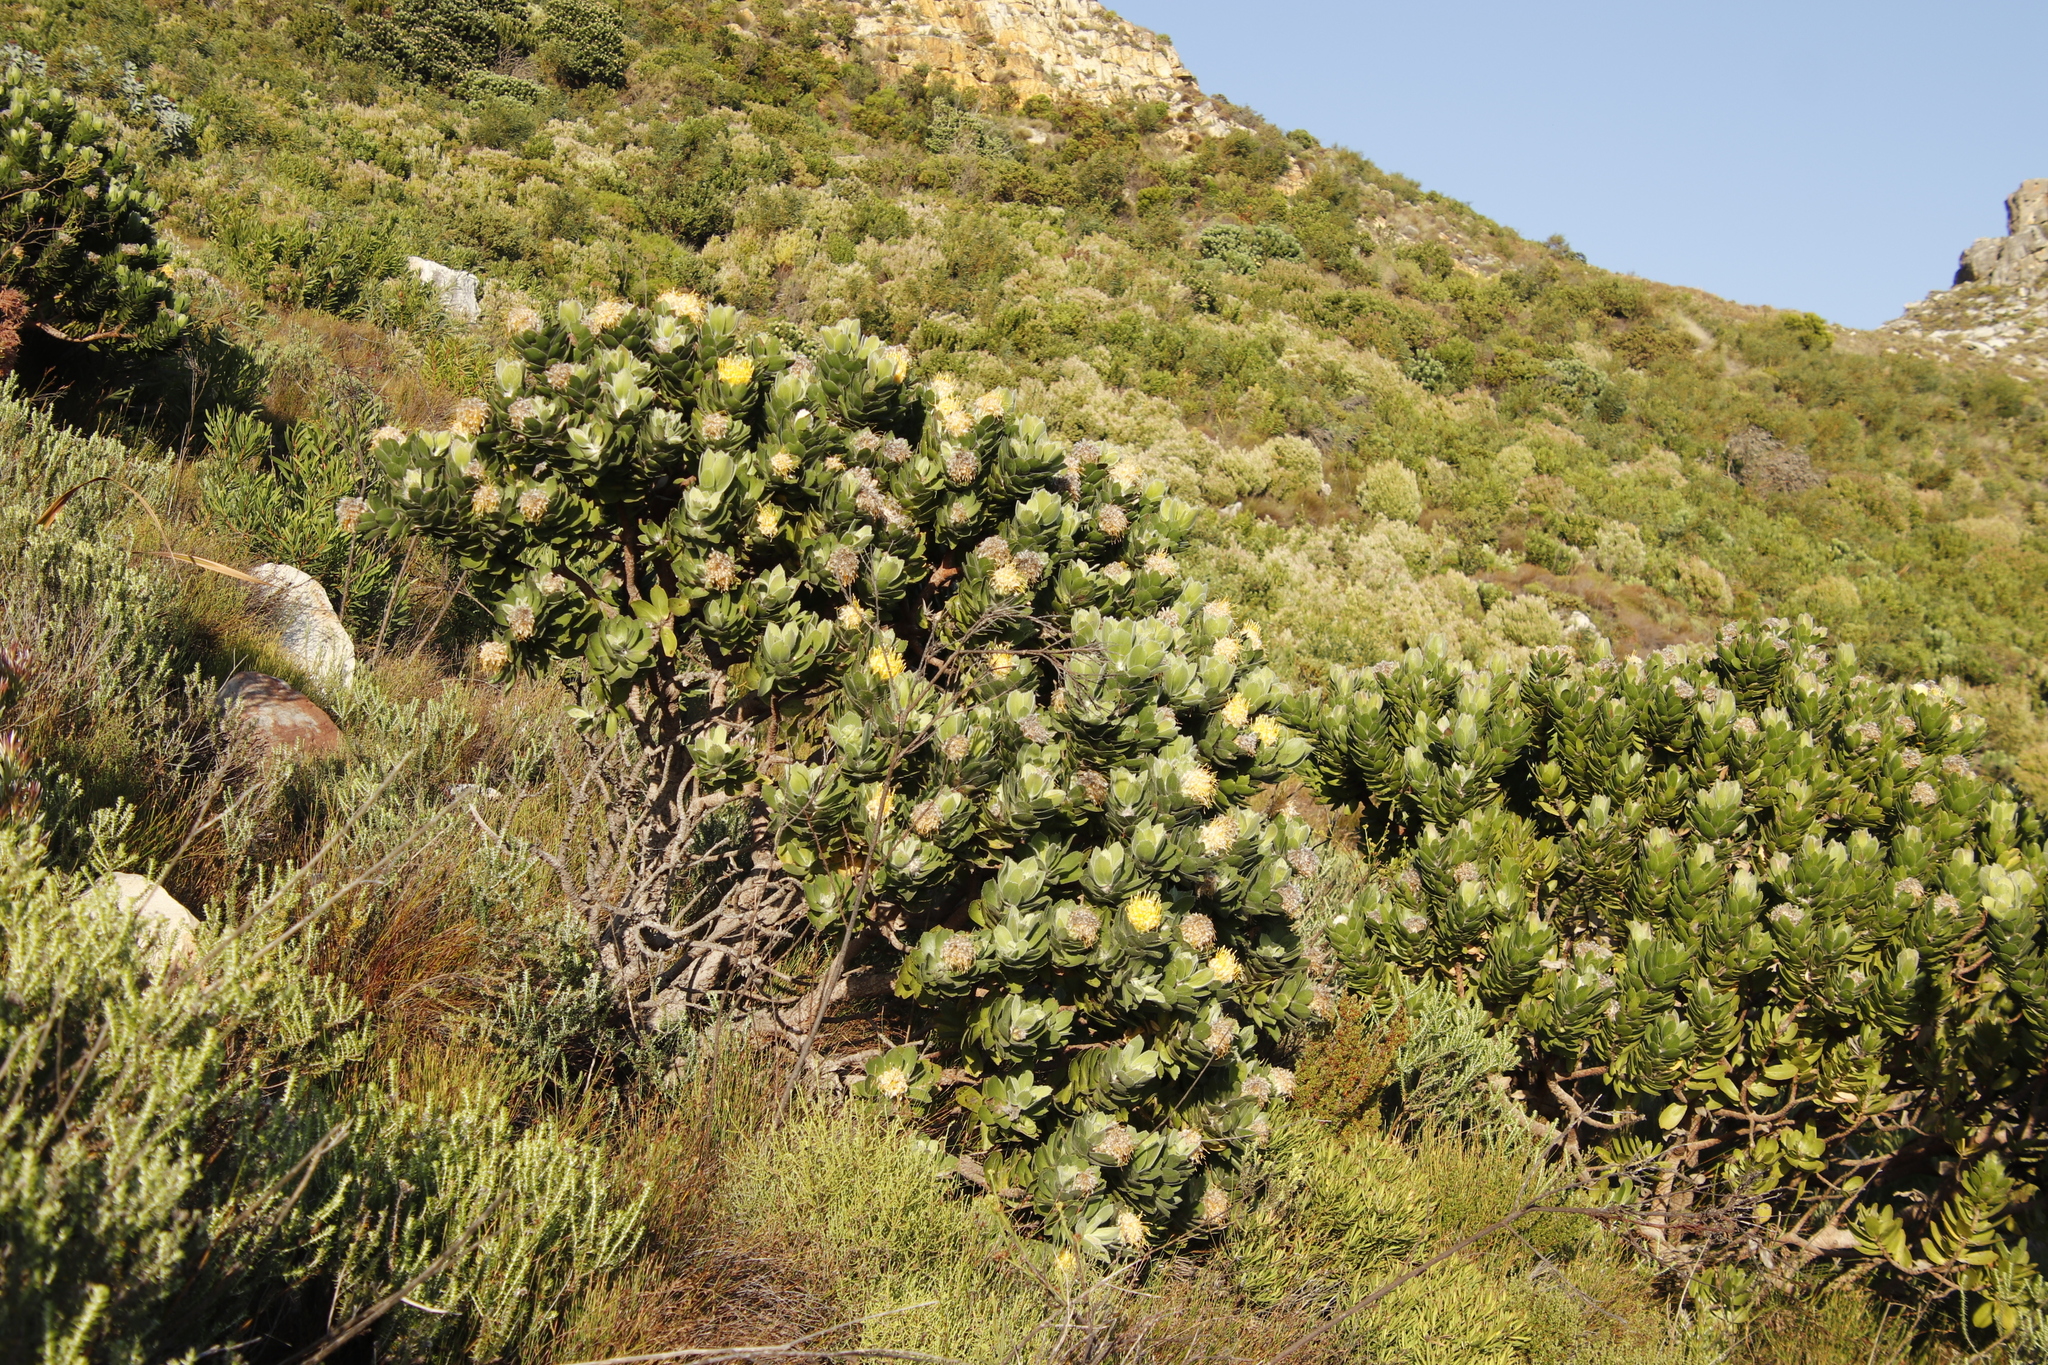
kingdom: Plantae
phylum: Tracheophyta
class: Magnoliopsida
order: Proteales
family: Proteaceae
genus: Leucospermum
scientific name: Leucospermum conocarpodendron
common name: Tree pincushion
